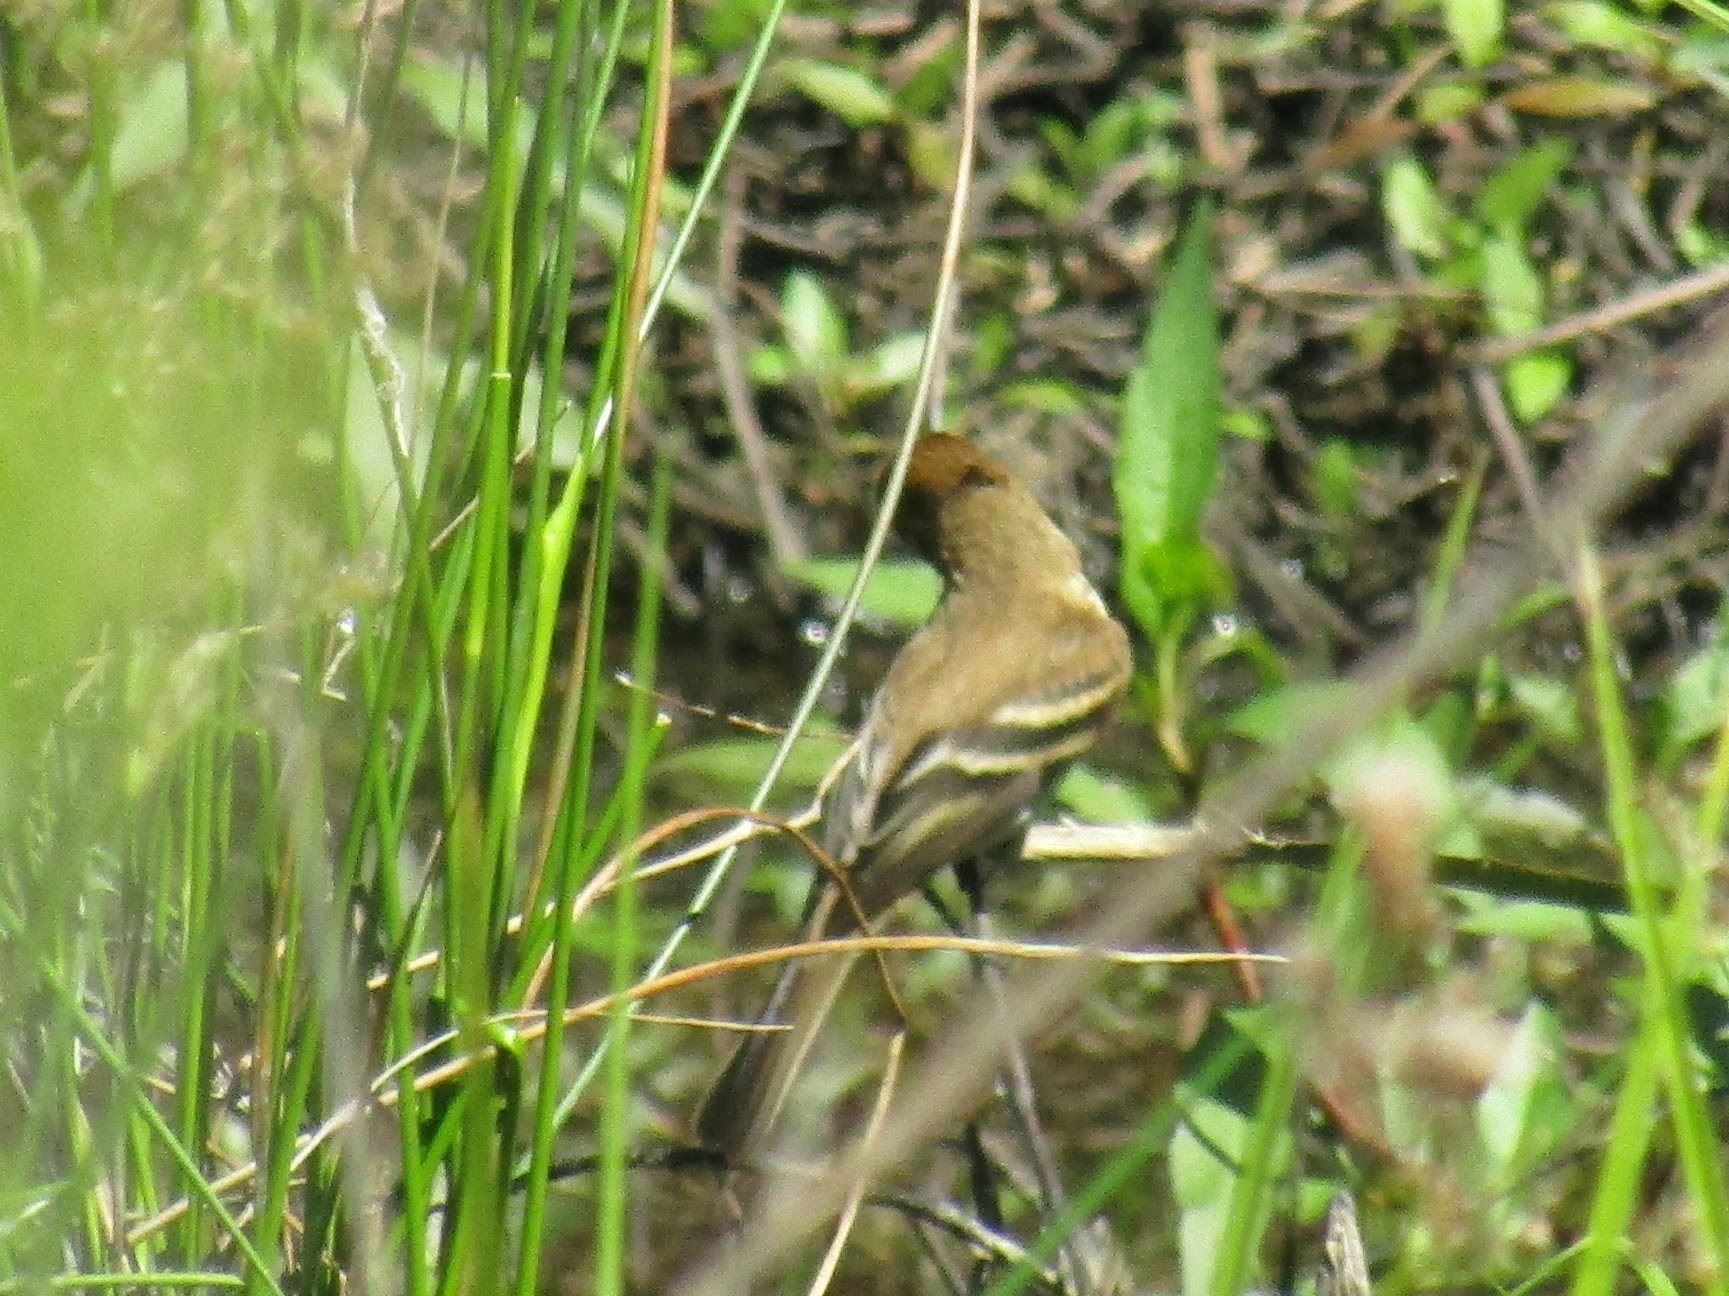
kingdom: Animalia
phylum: Chordata
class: Aves
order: Passeriformes
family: Tyrannidae
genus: Myiophobus
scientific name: Myiophobus fasciatus
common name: Bran-colored flycatcher
